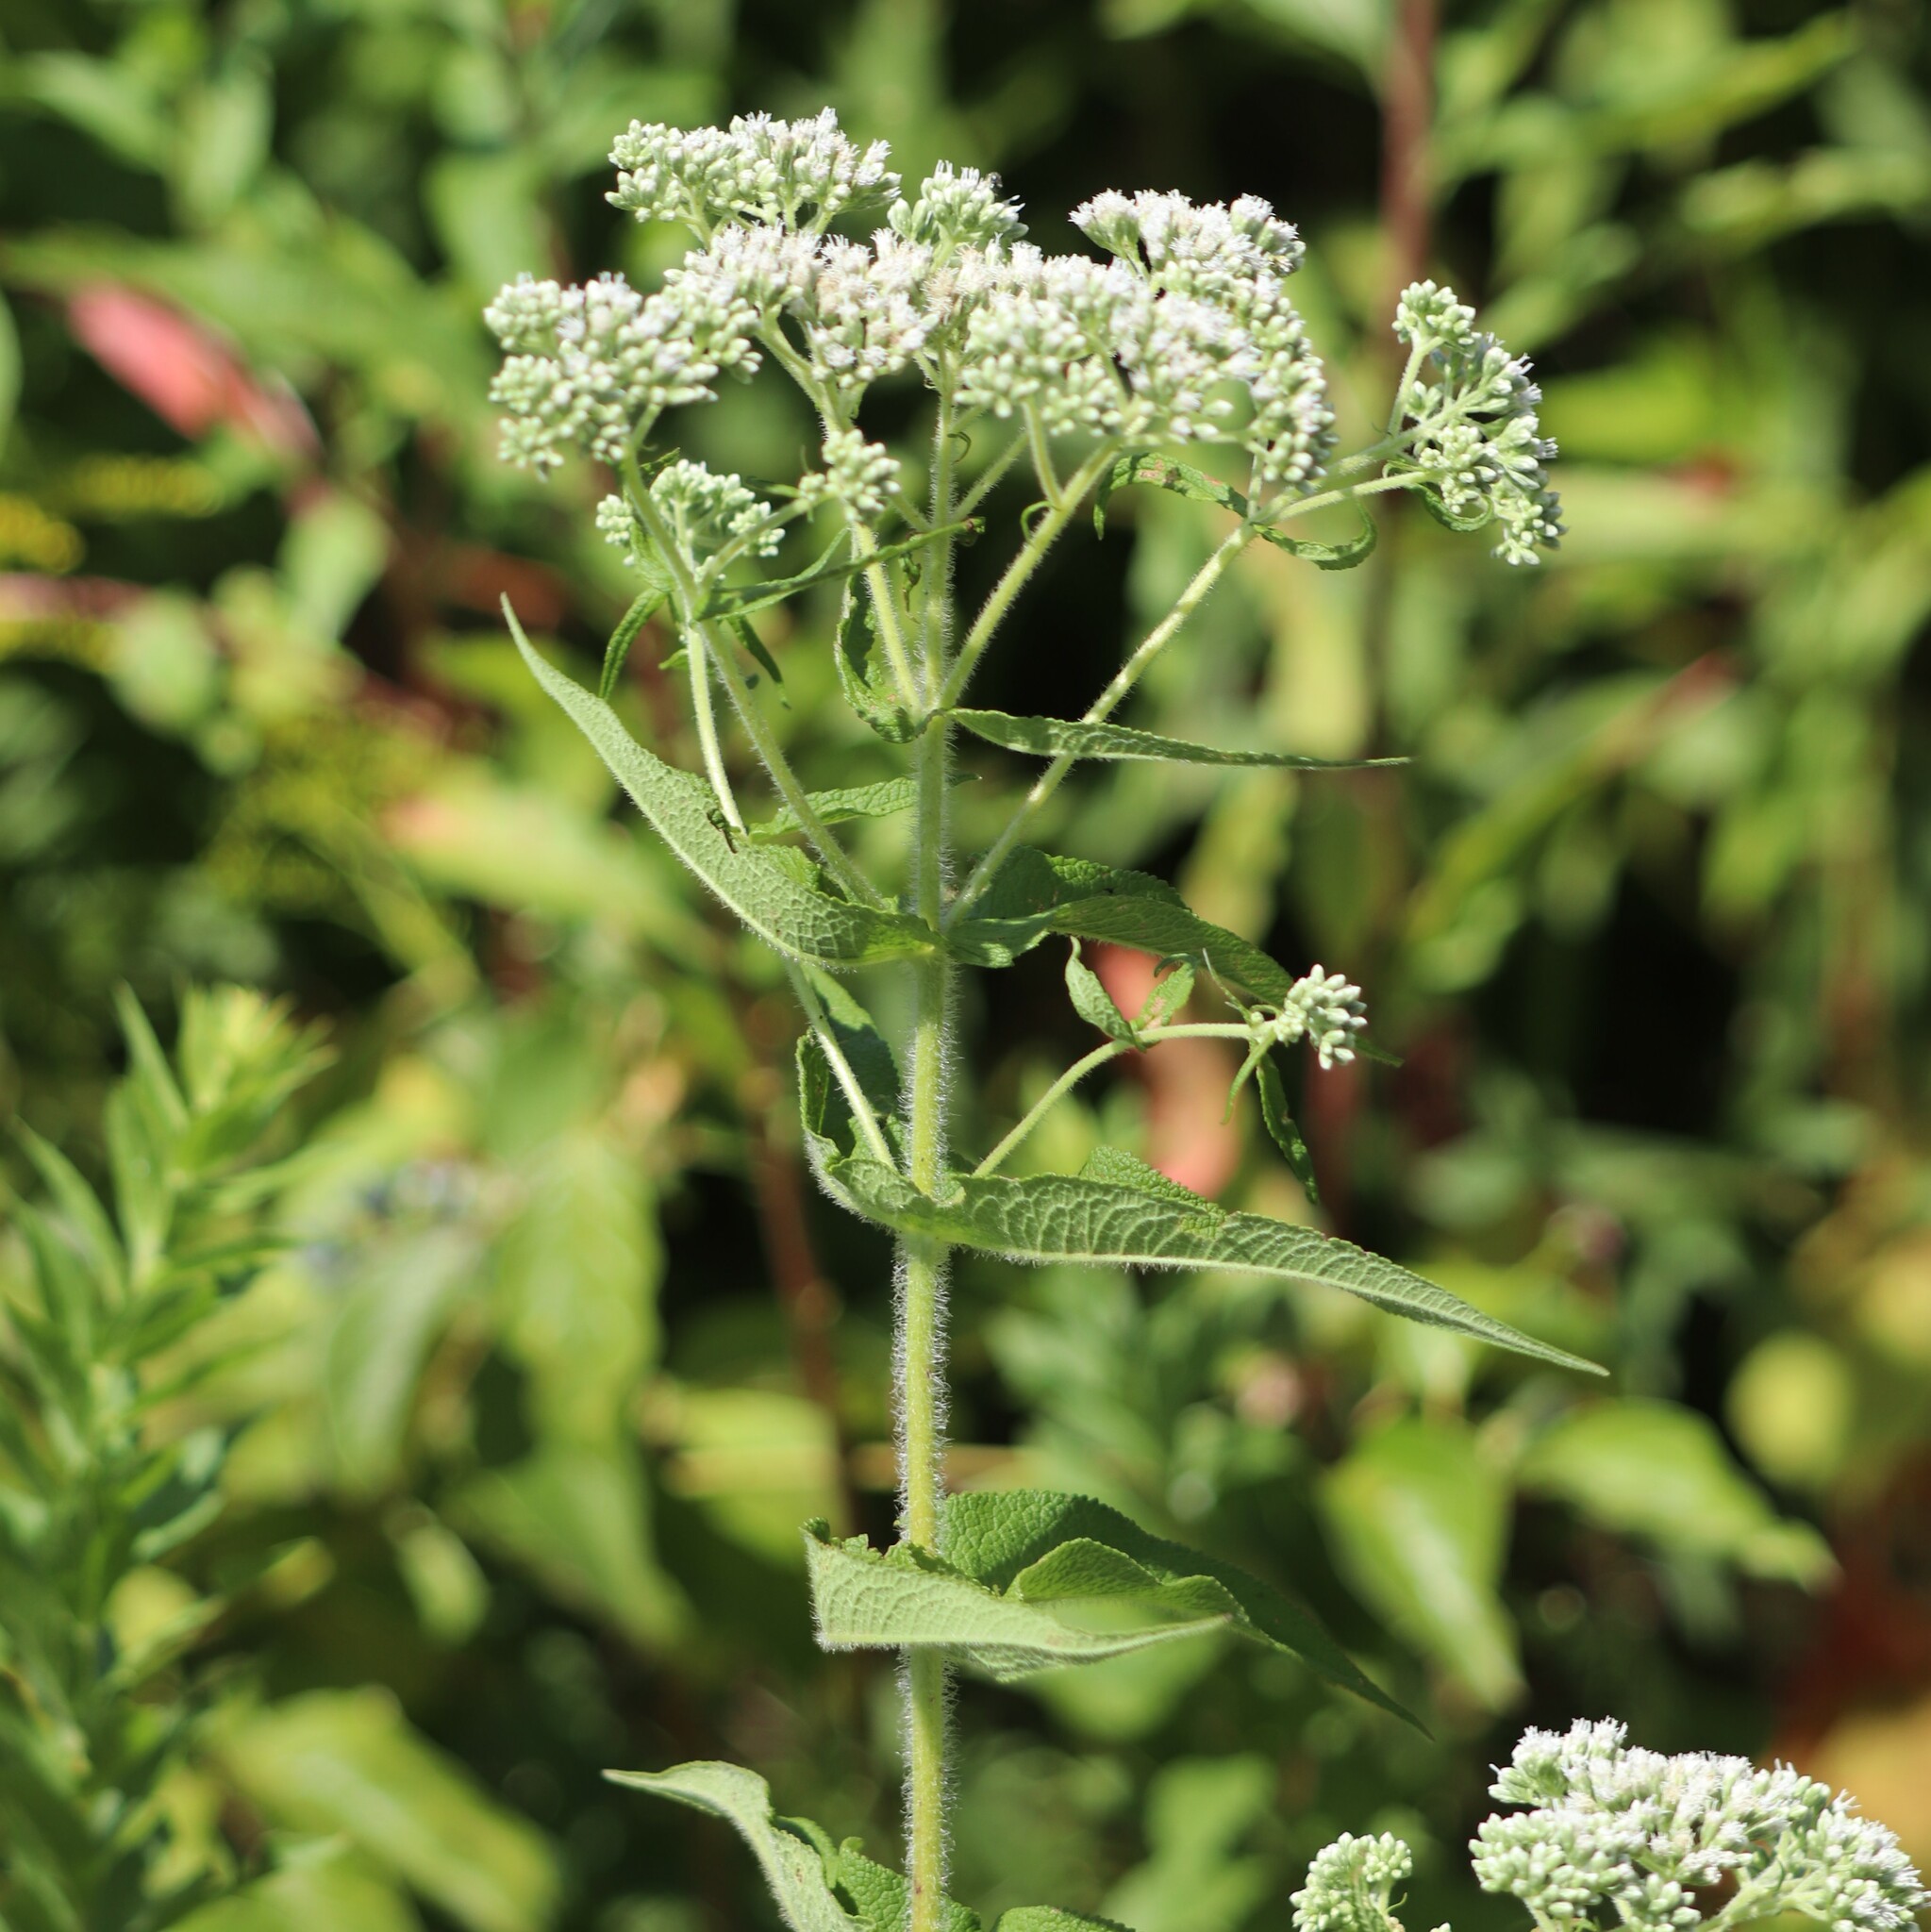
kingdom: Plantae
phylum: Tracheophyta
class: Magnoliopsida
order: Asterales
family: Asteraceae
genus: Eupatorium
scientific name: Eupatorium perfoliatum
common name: Boneset
